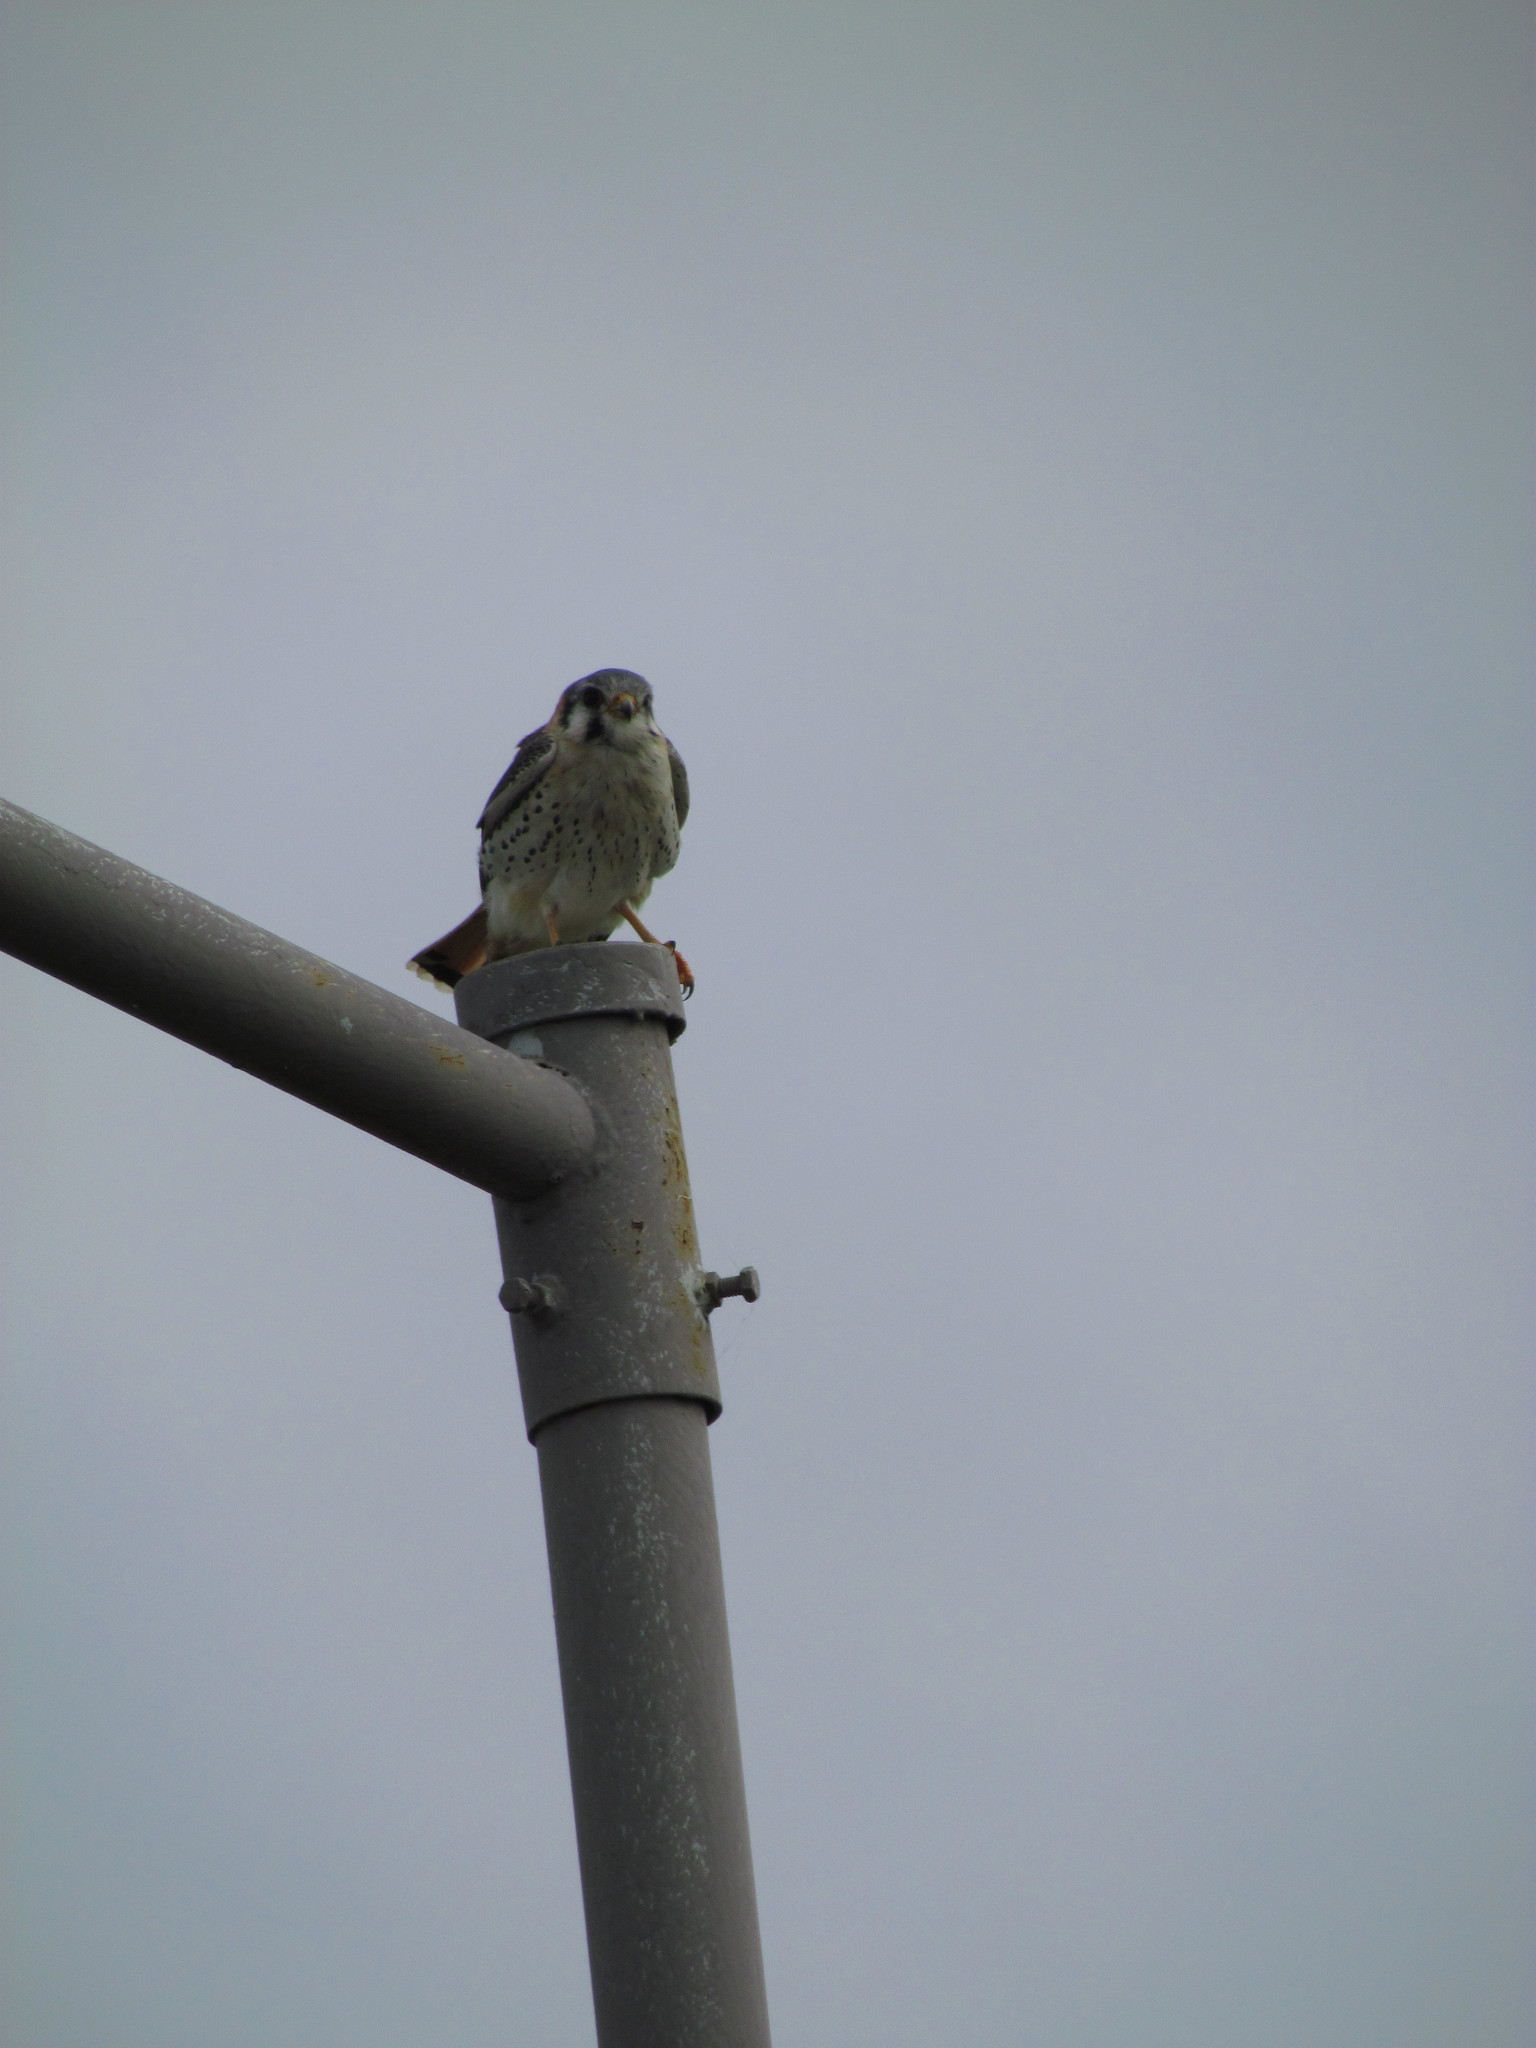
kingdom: Animalia
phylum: Chordata
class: Aves
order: Falconiformes
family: Falconidae
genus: Falco
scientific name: Falco sparverius
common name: American kestrel
